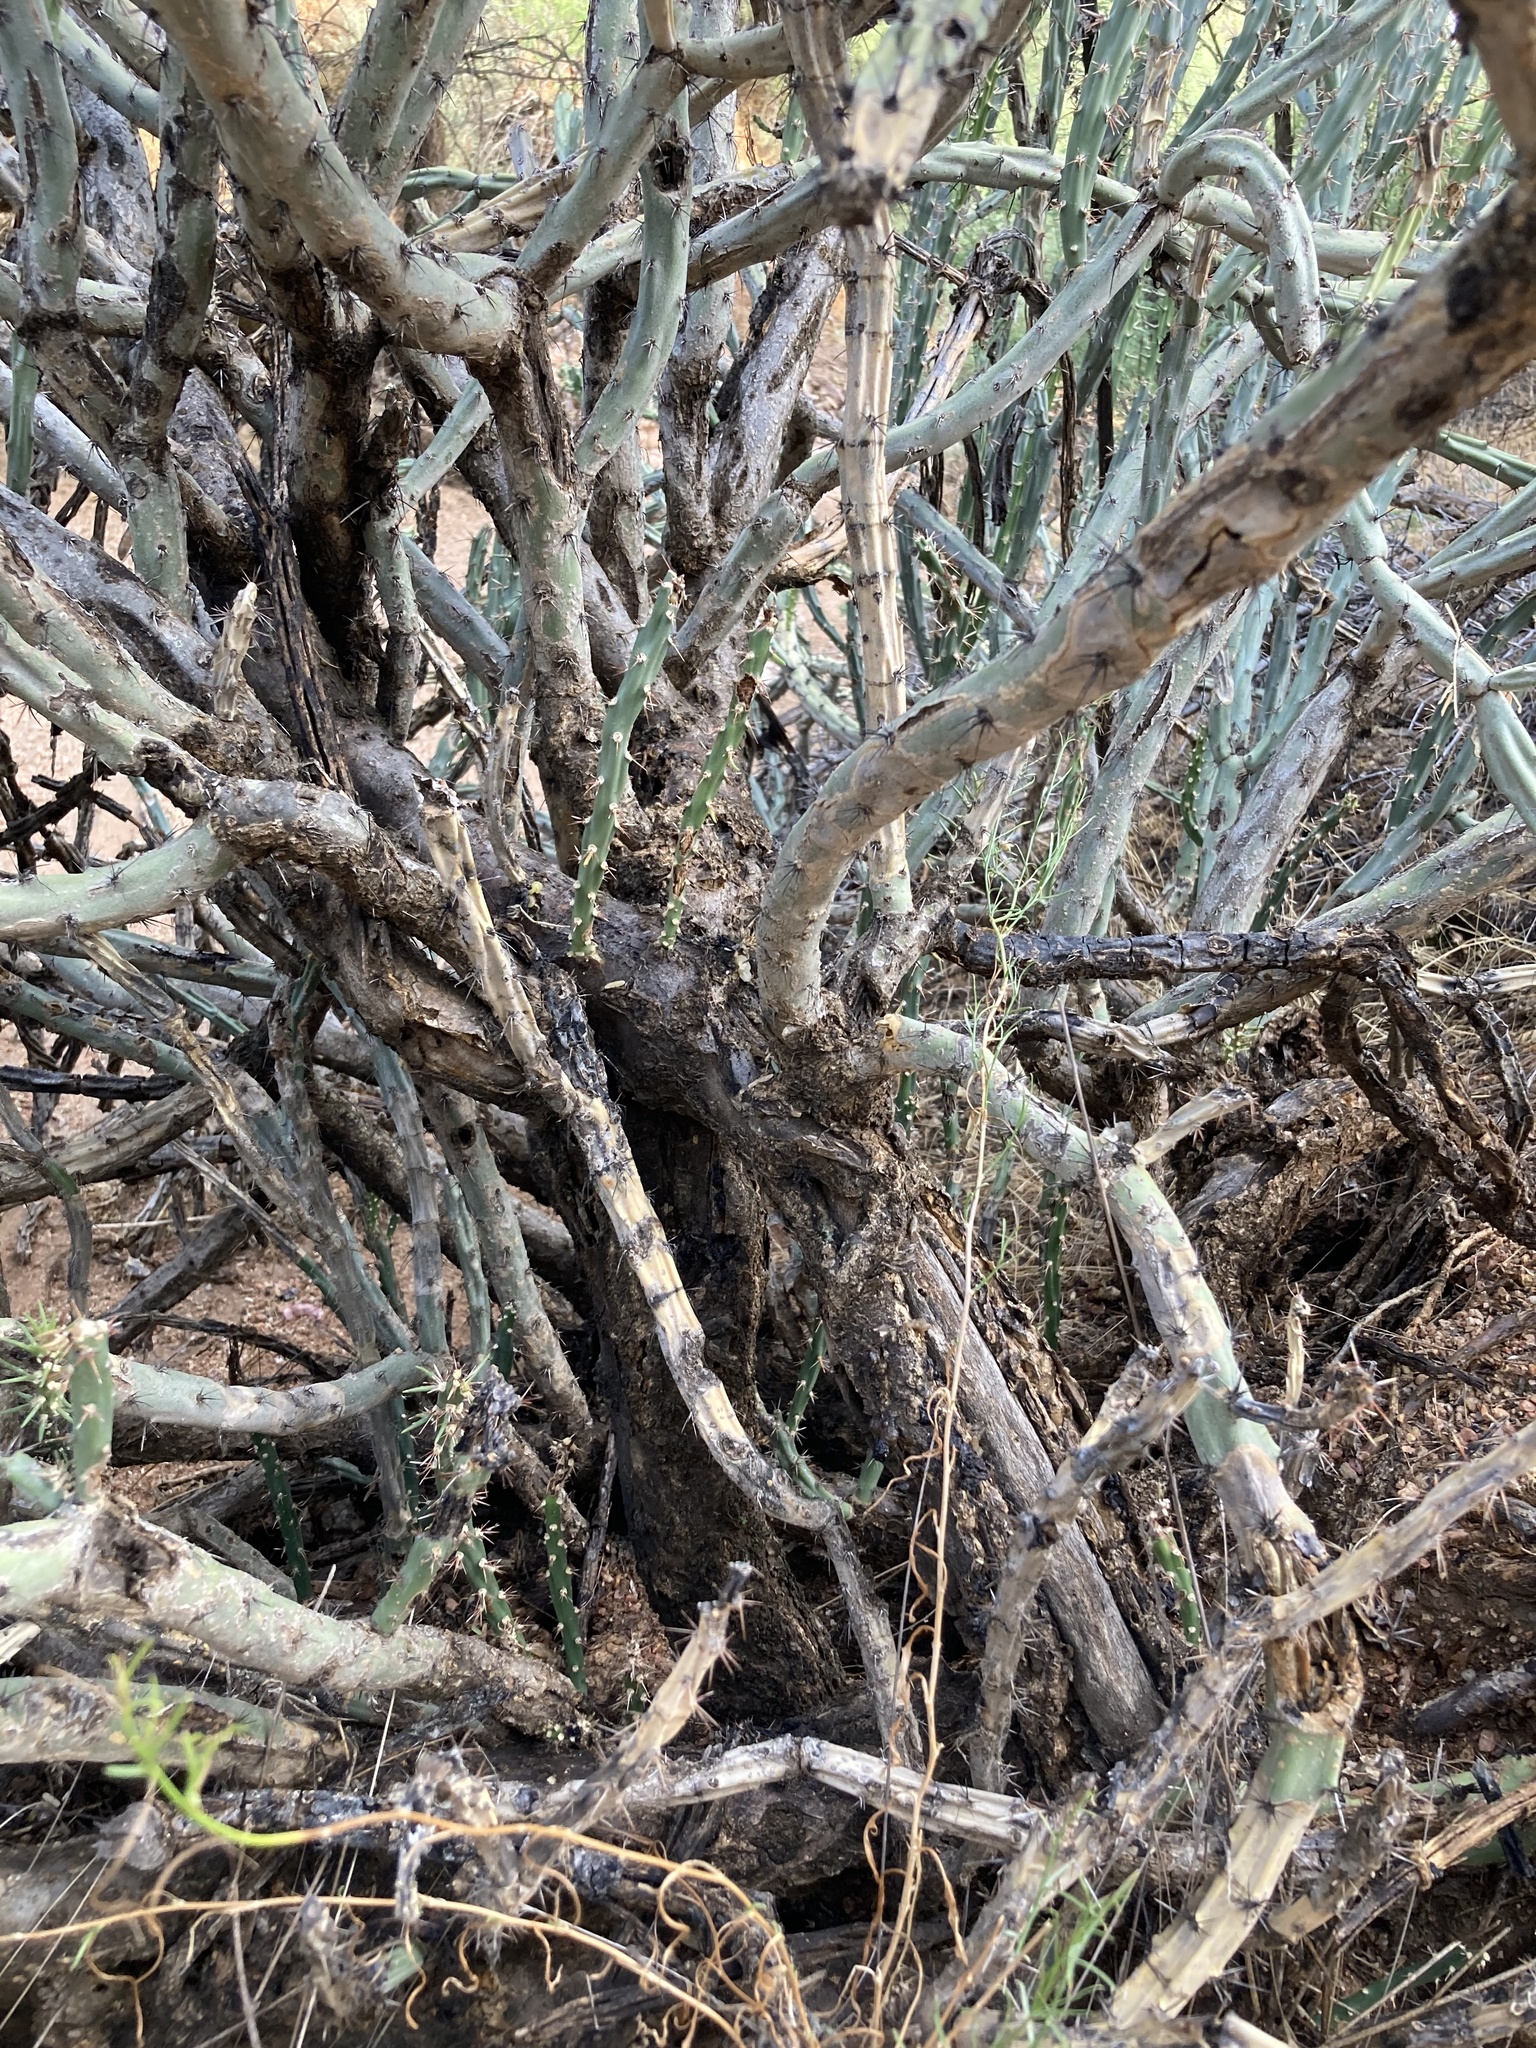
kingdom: Plantae
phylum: Tracheophyta
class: Magnoliopsida
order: Caryophyllales
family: Cactaceae
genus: Cylindropuntia
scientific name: Cylindropuntia acanthocarpa
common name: Buckhorn cholla
